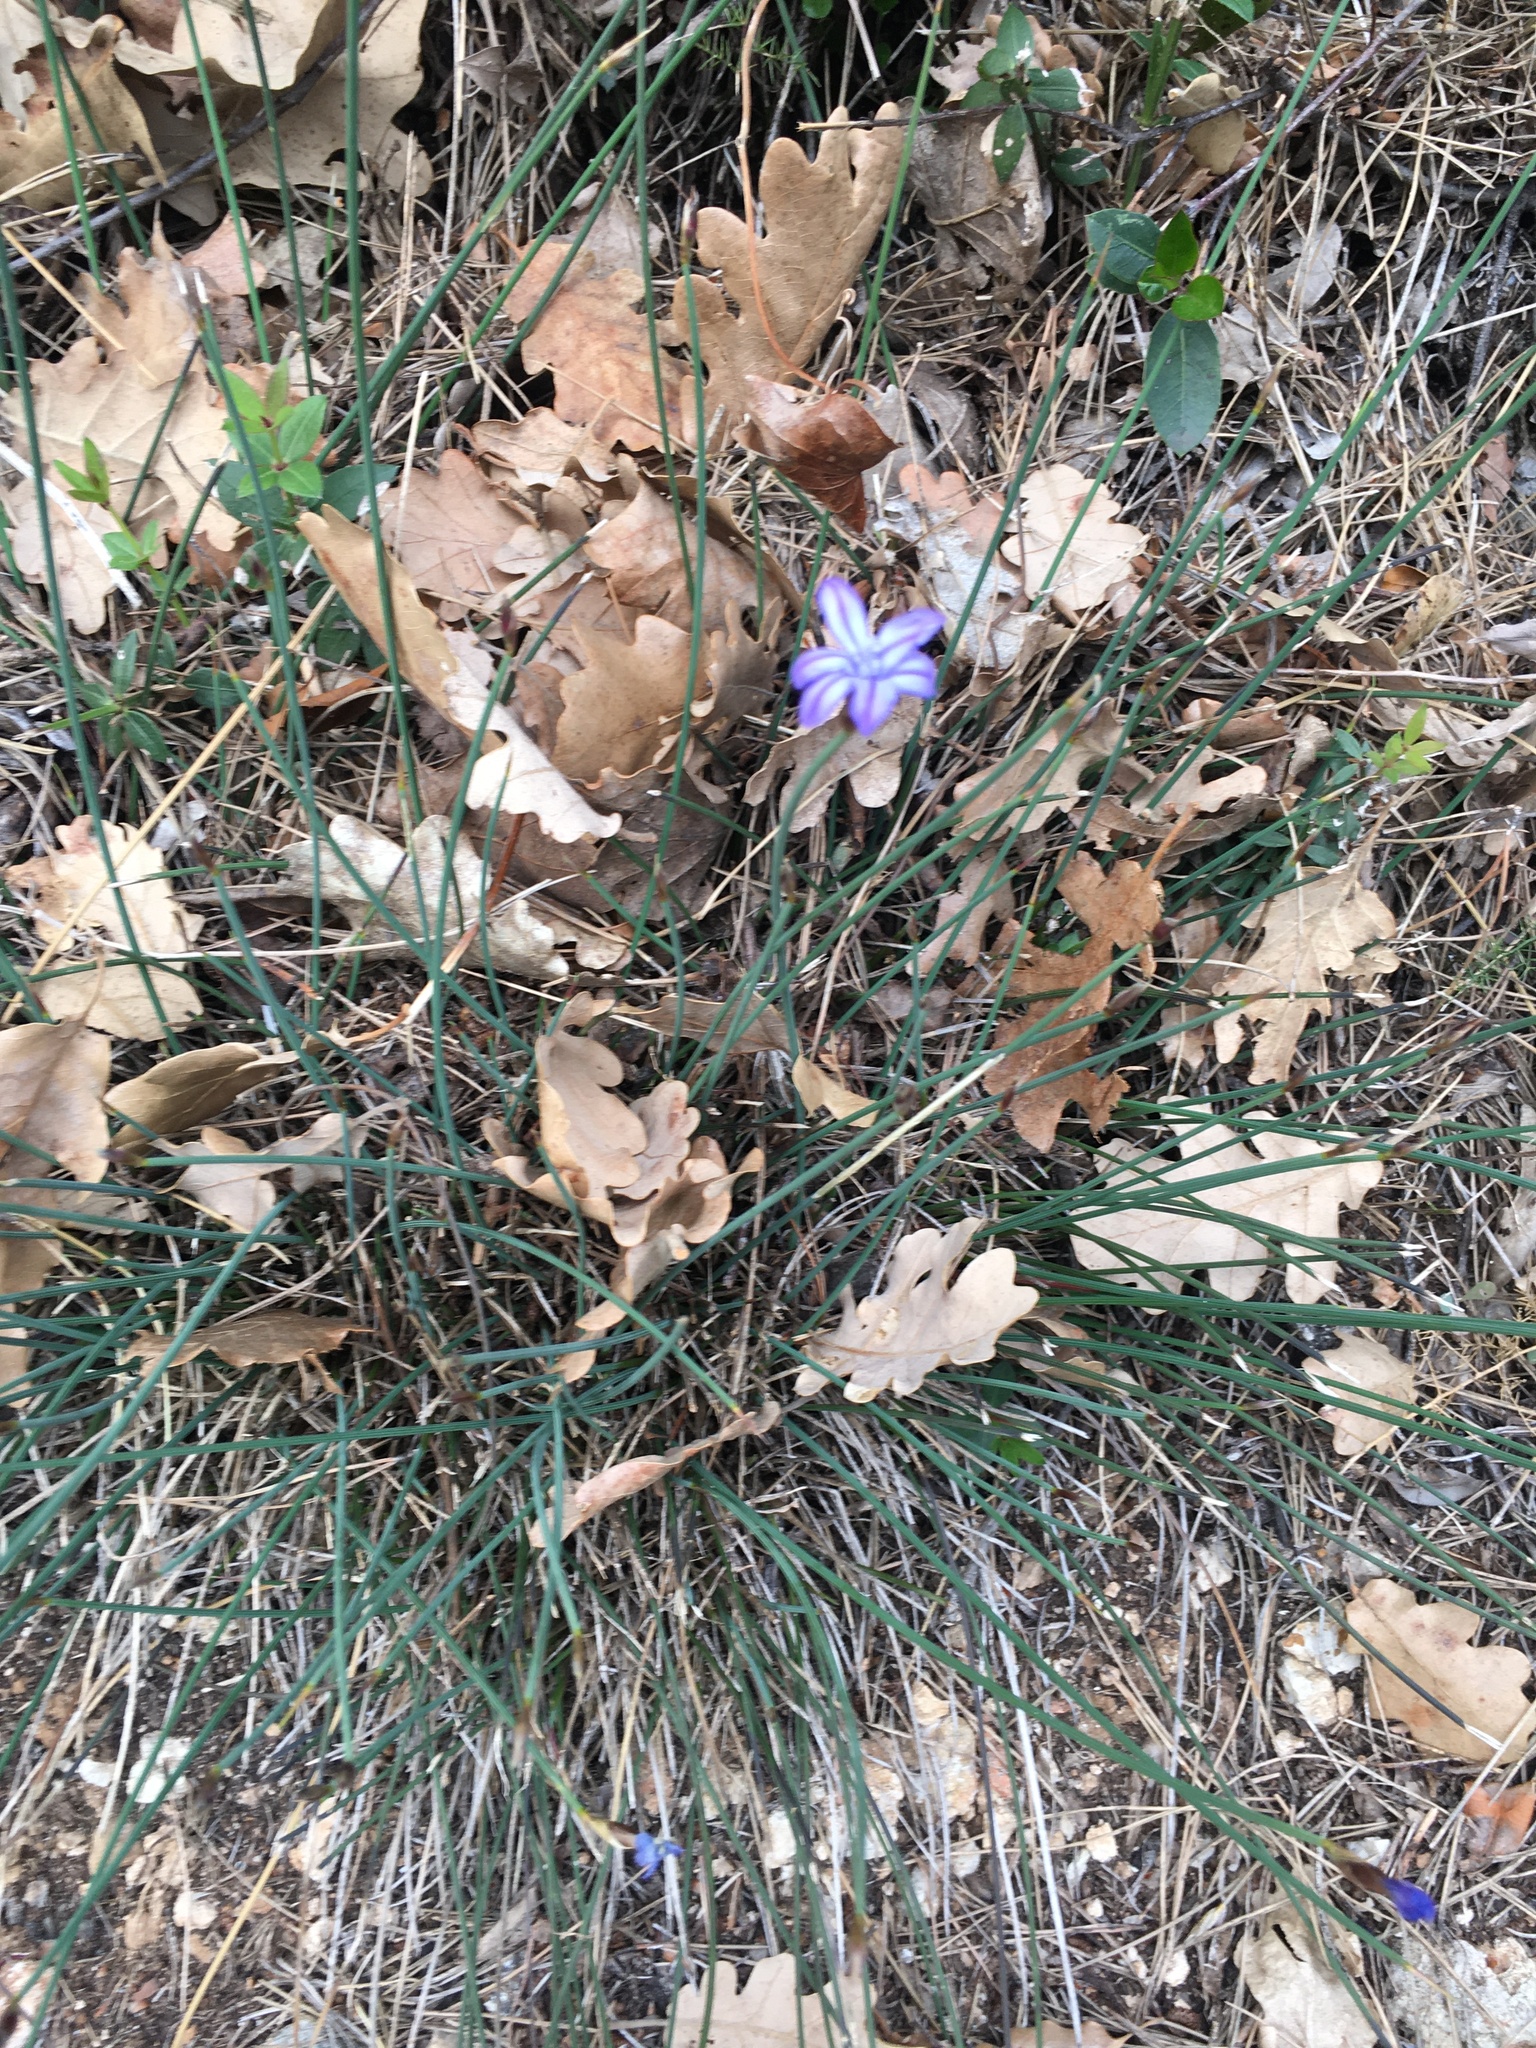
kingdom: Plantae
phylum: Tracheophyta
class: Liliopsida
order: Asparagales
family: Asparagaceae
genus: Aphyllanthes
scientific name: Aphyllanthes monspeliensis
